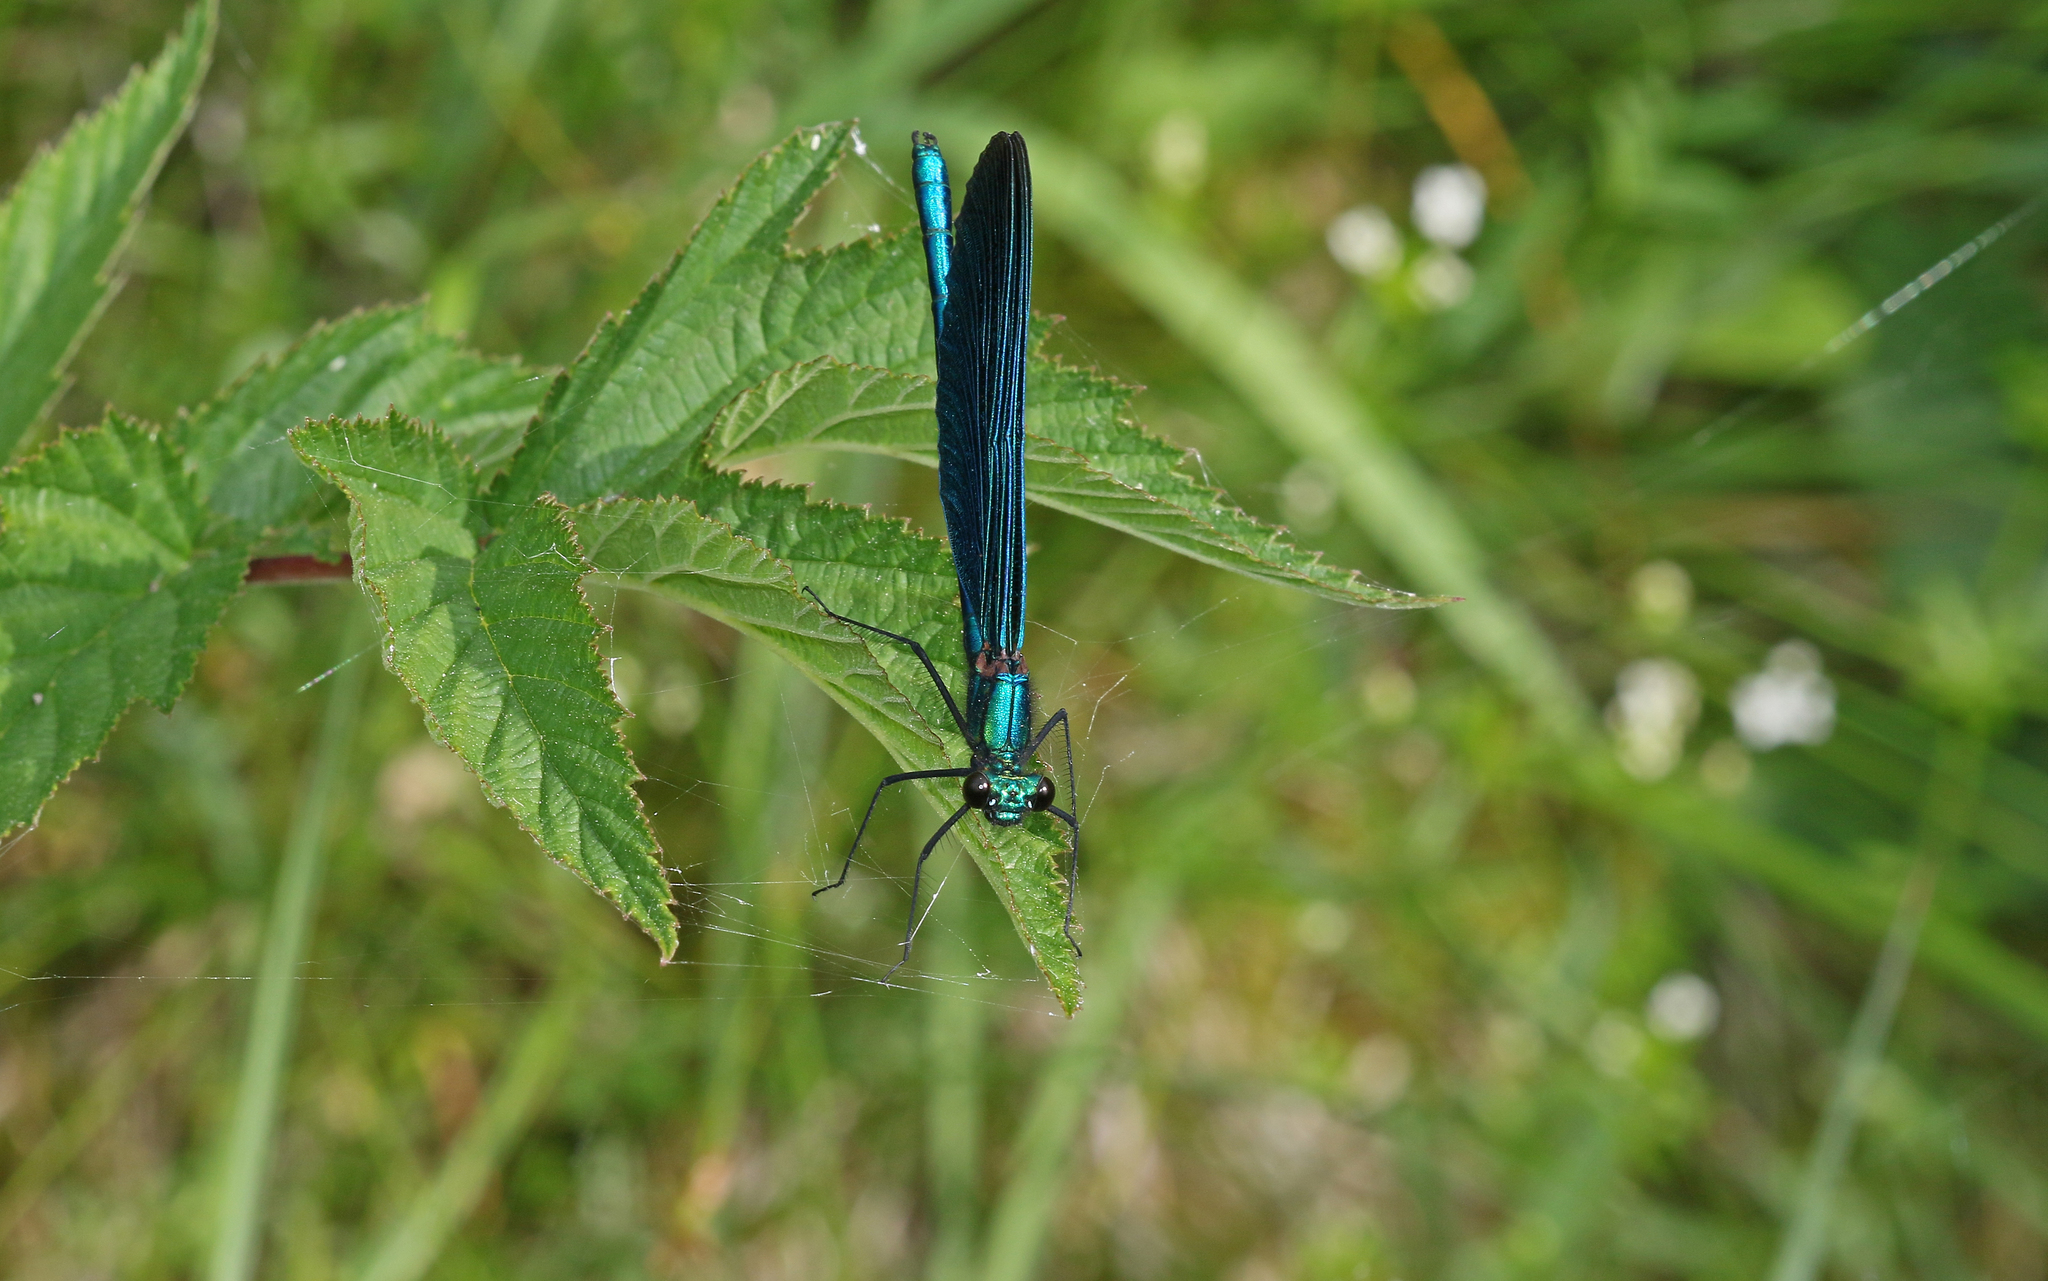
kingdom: Animalia
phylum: Arthropoda
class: Insecta
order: Odonata
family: Calopterygidae
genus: Calopteryx
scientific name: Calopteryx virgo
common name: Beautiful demoiselle
